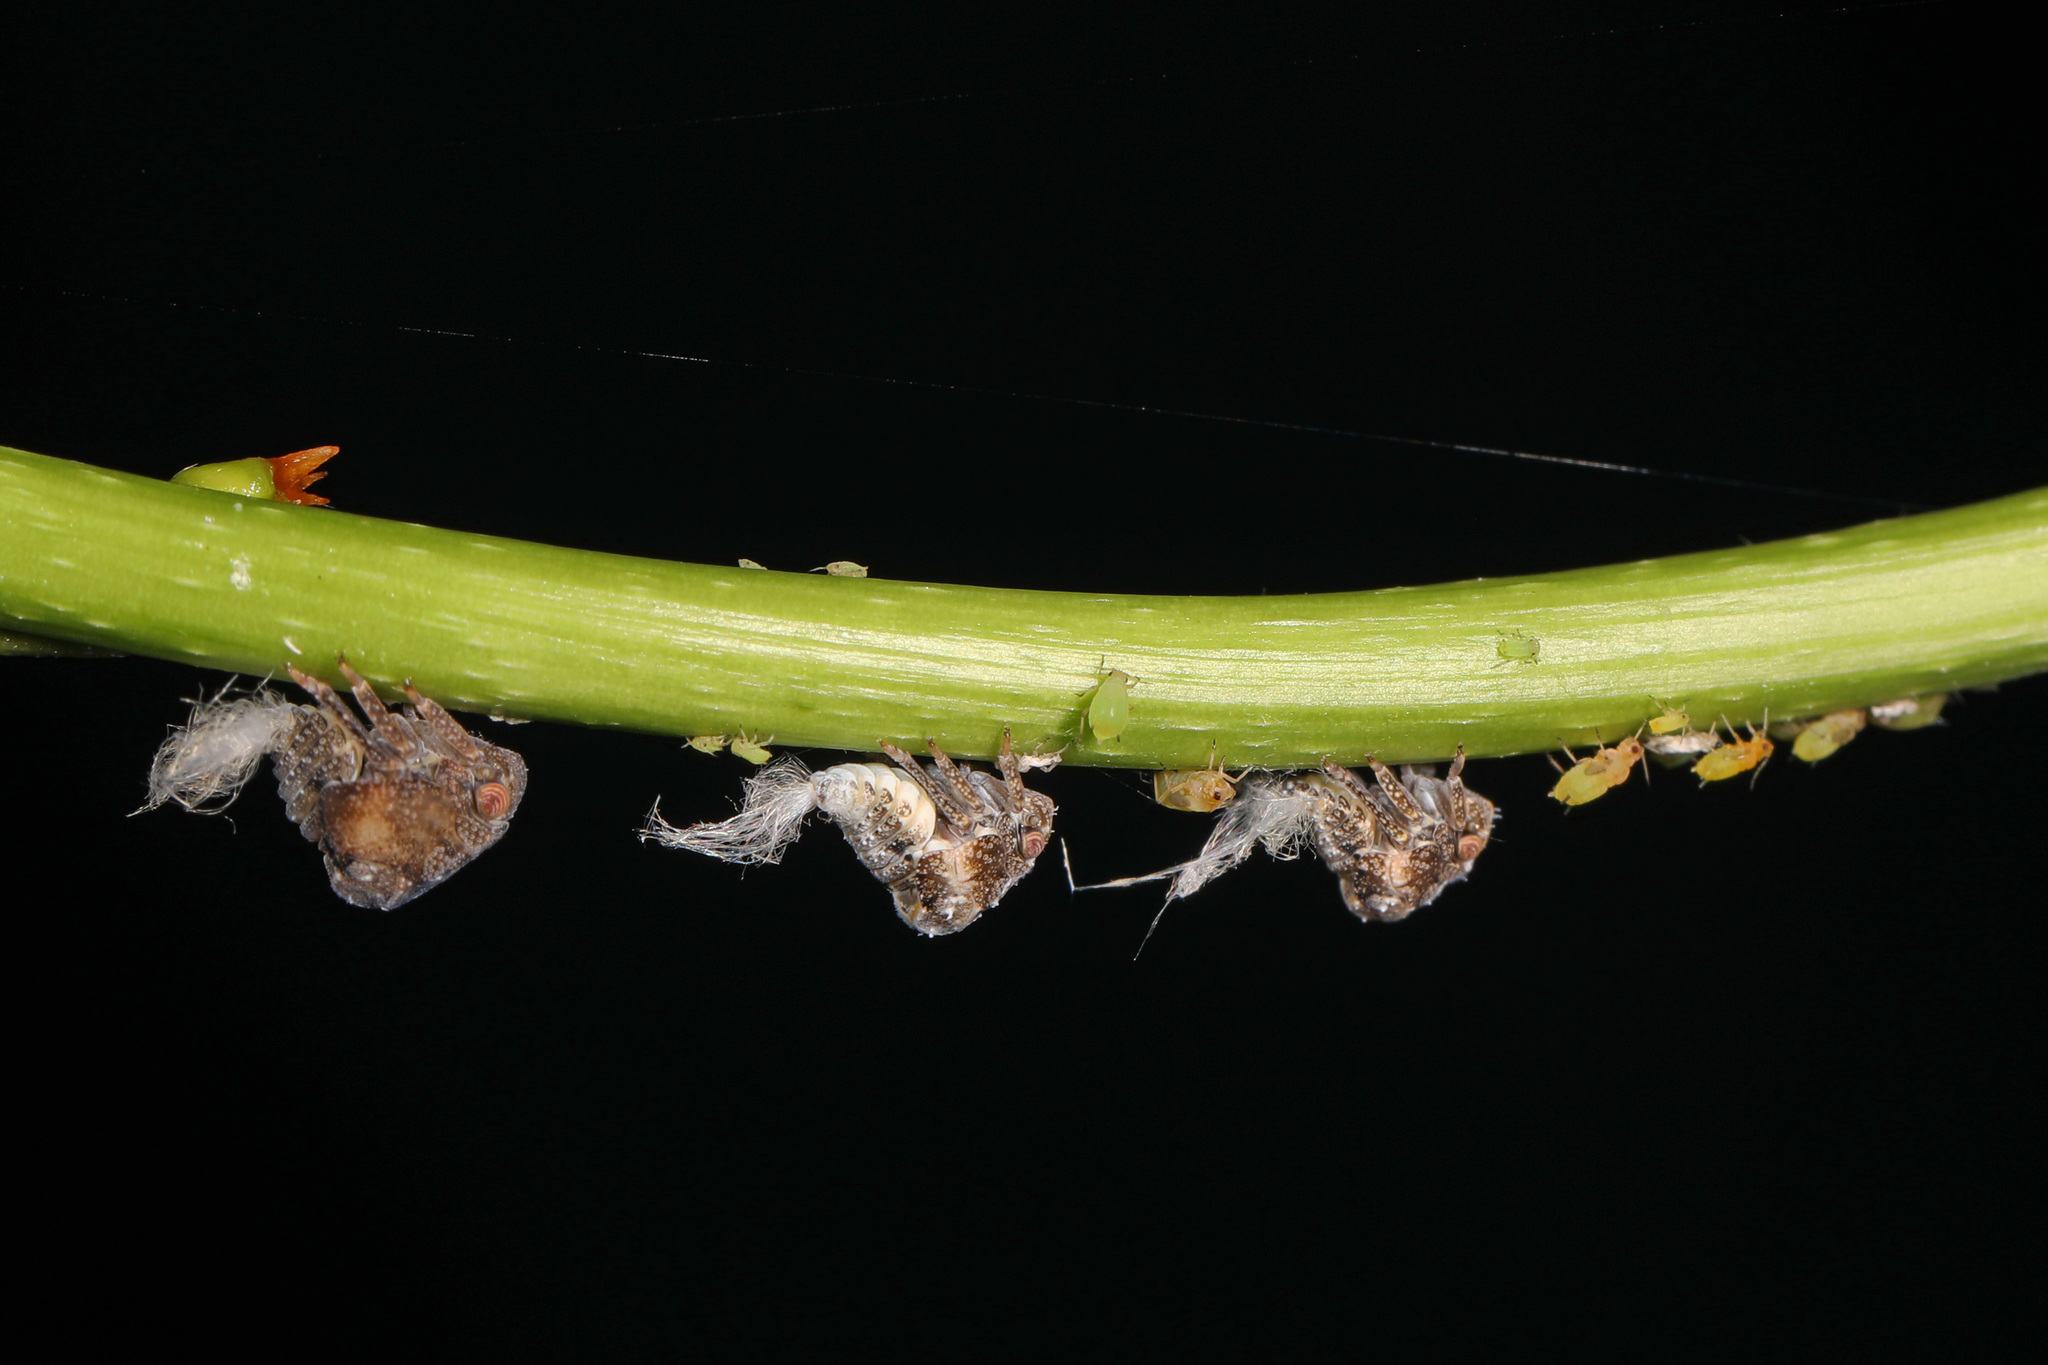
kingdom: Animalia
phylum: Arthropoda
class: Insecta
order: Hemiptera
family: Acanaloniidae
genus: Acanalonia
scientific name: Acanalonia bivittata
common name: Two-striped planthopper
